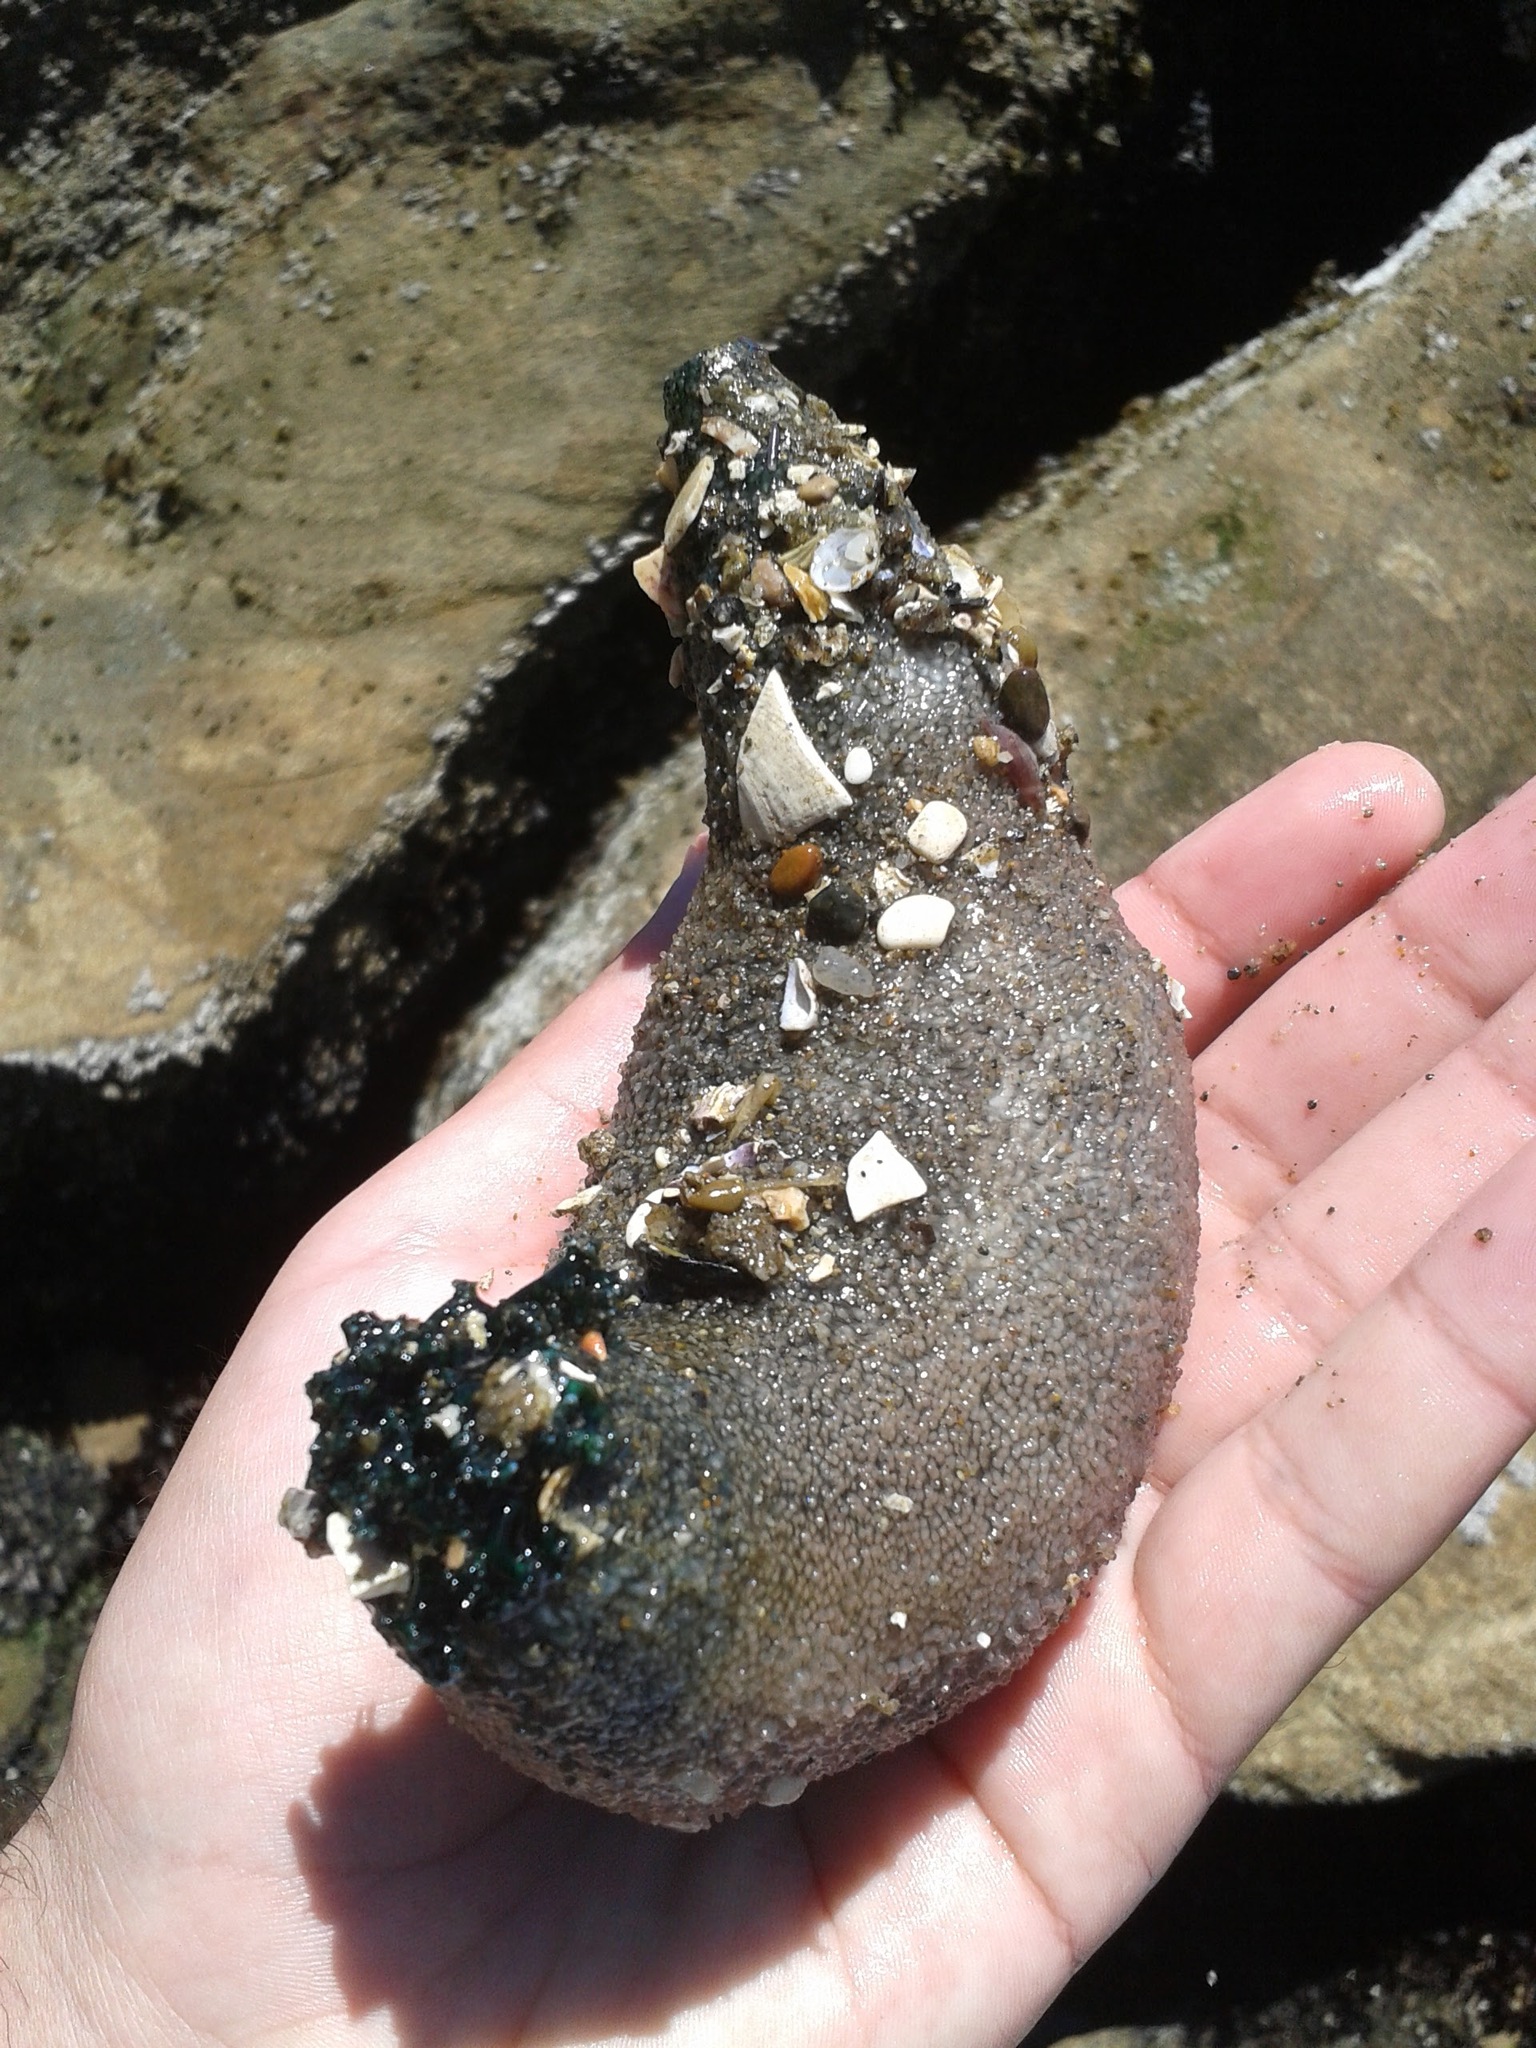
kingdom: Animalia
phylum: Echinodermata
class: Holothuroidea
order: Dendrochirotida
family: Cucumariidae
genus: Athyonidium
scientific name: Athyonidium chilensis
